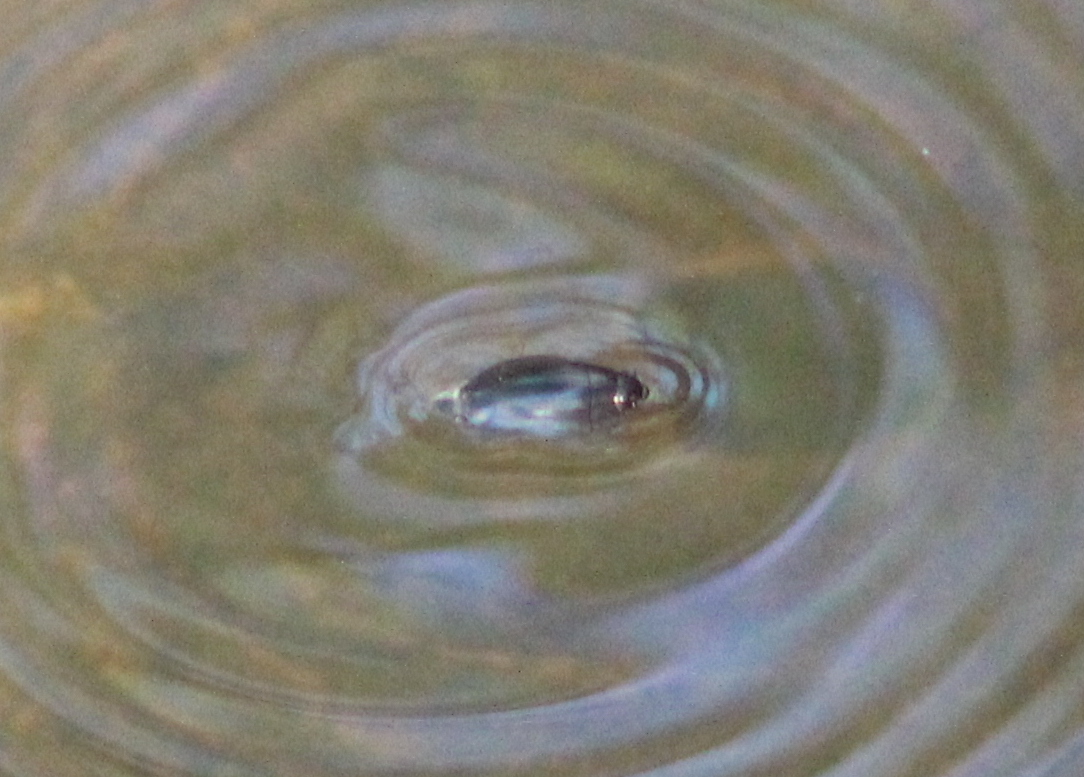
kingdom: Animalia
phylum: Arthropoda
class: Insecta
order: Coleoptera
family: Gyrinidae
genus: Dineutus
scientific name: Dineutus
